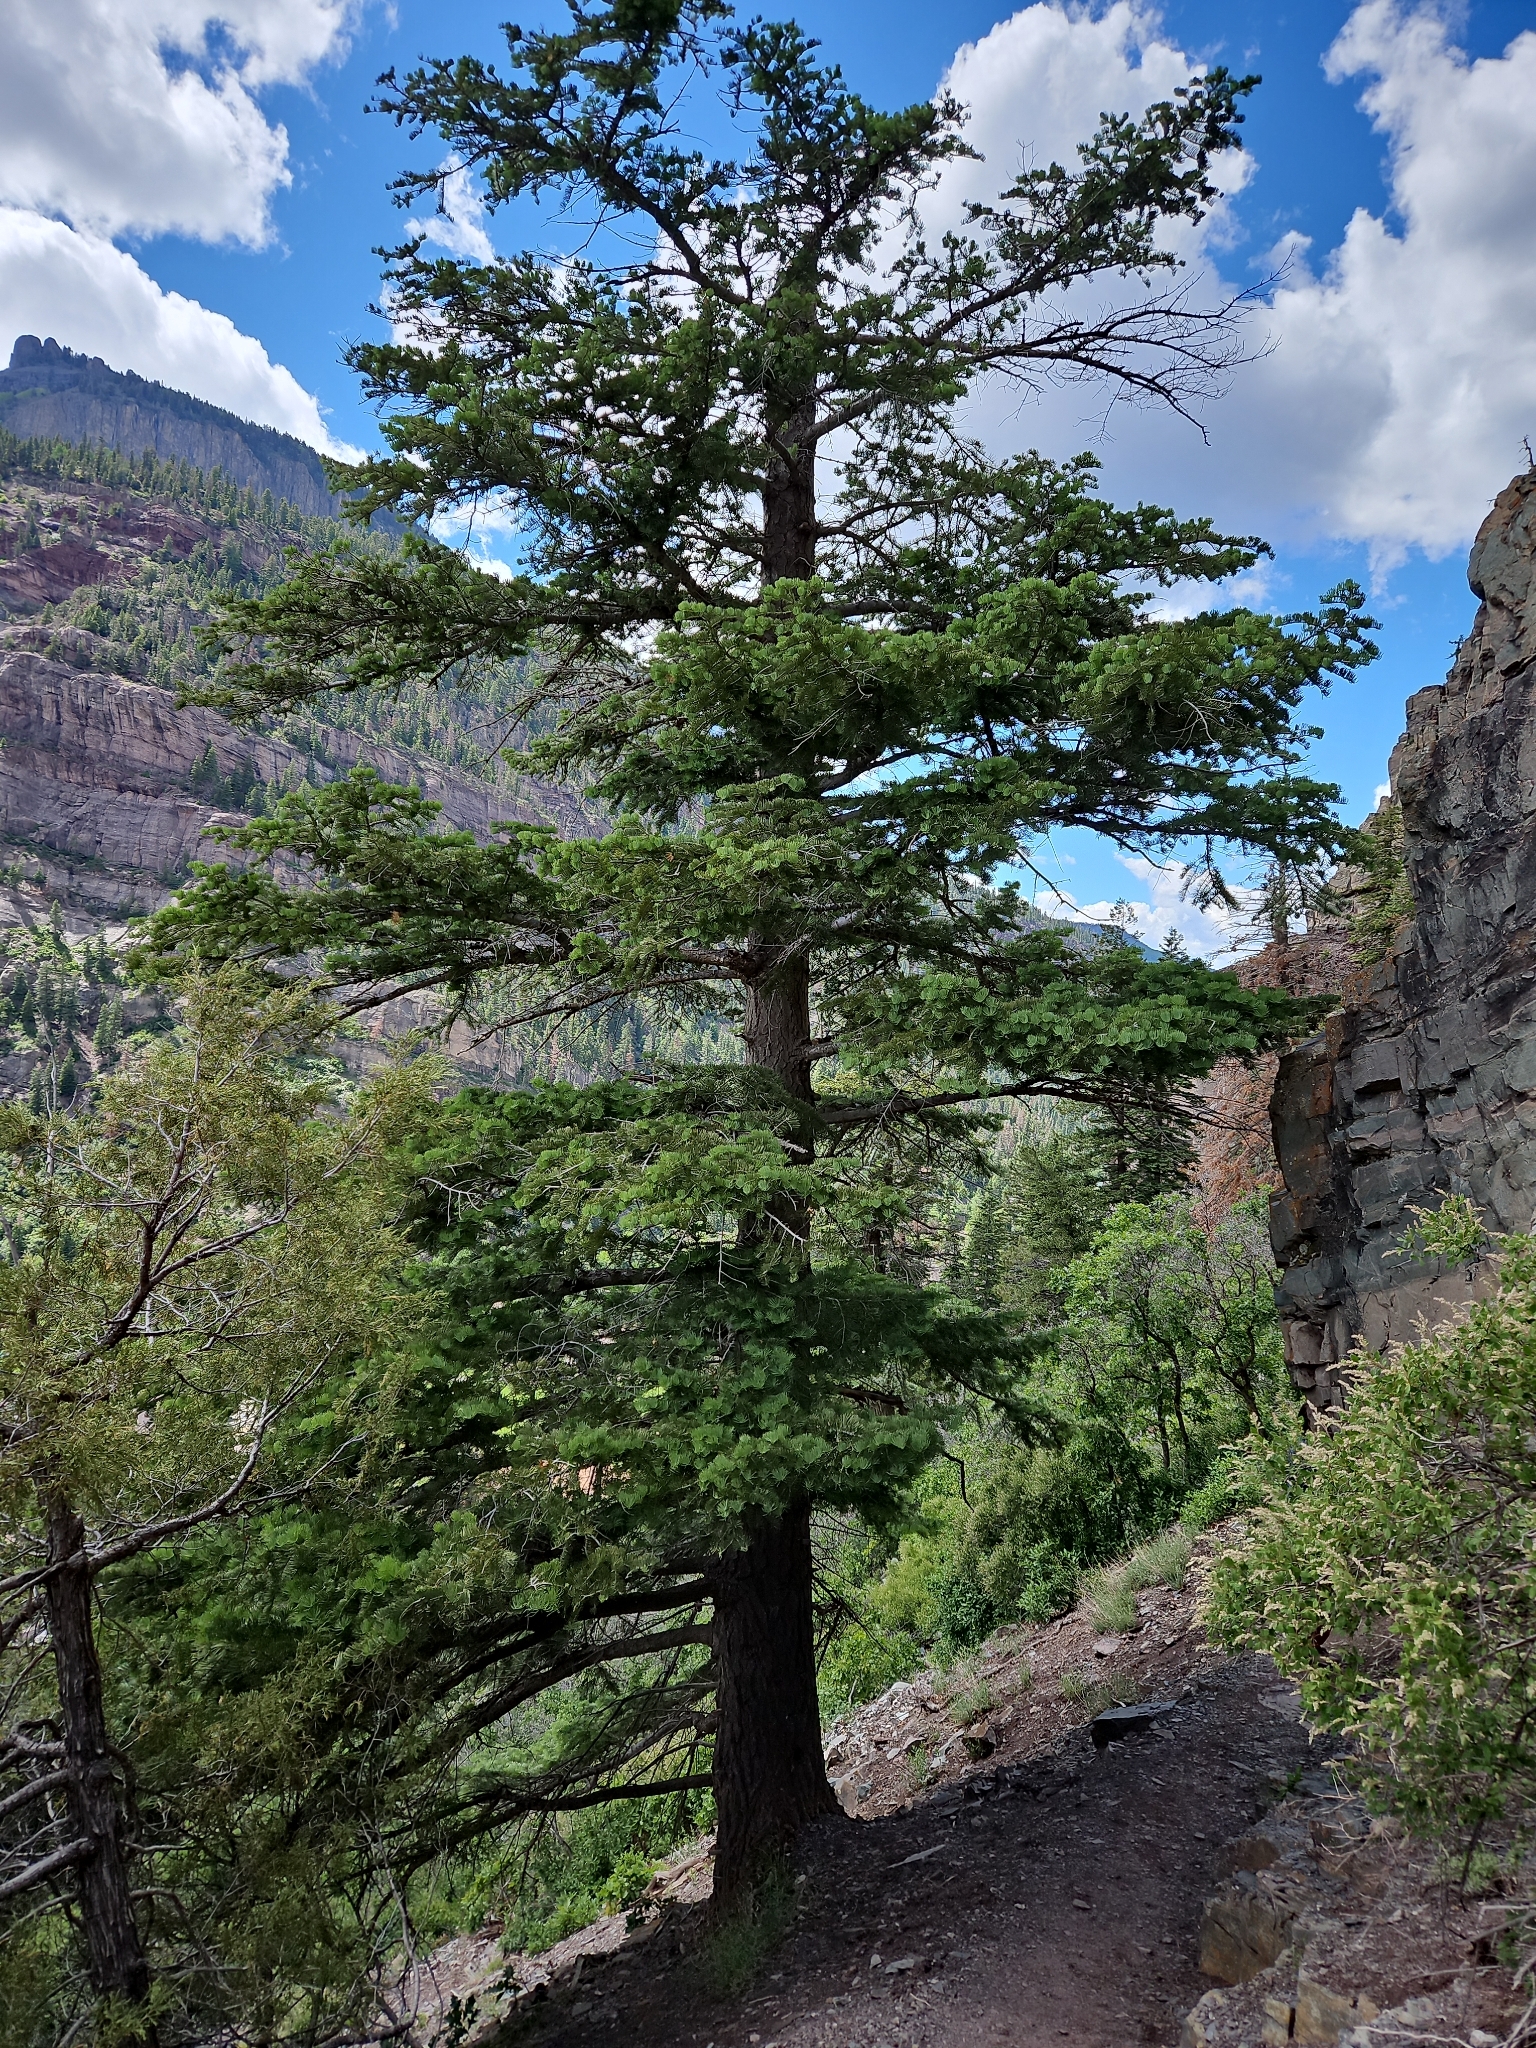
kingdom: Plantae
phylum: Tracheophyta
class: Pinopsida
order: Pinales
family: Pinaceae
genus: Abies
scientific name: Abies concolor
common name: Colorado fir
